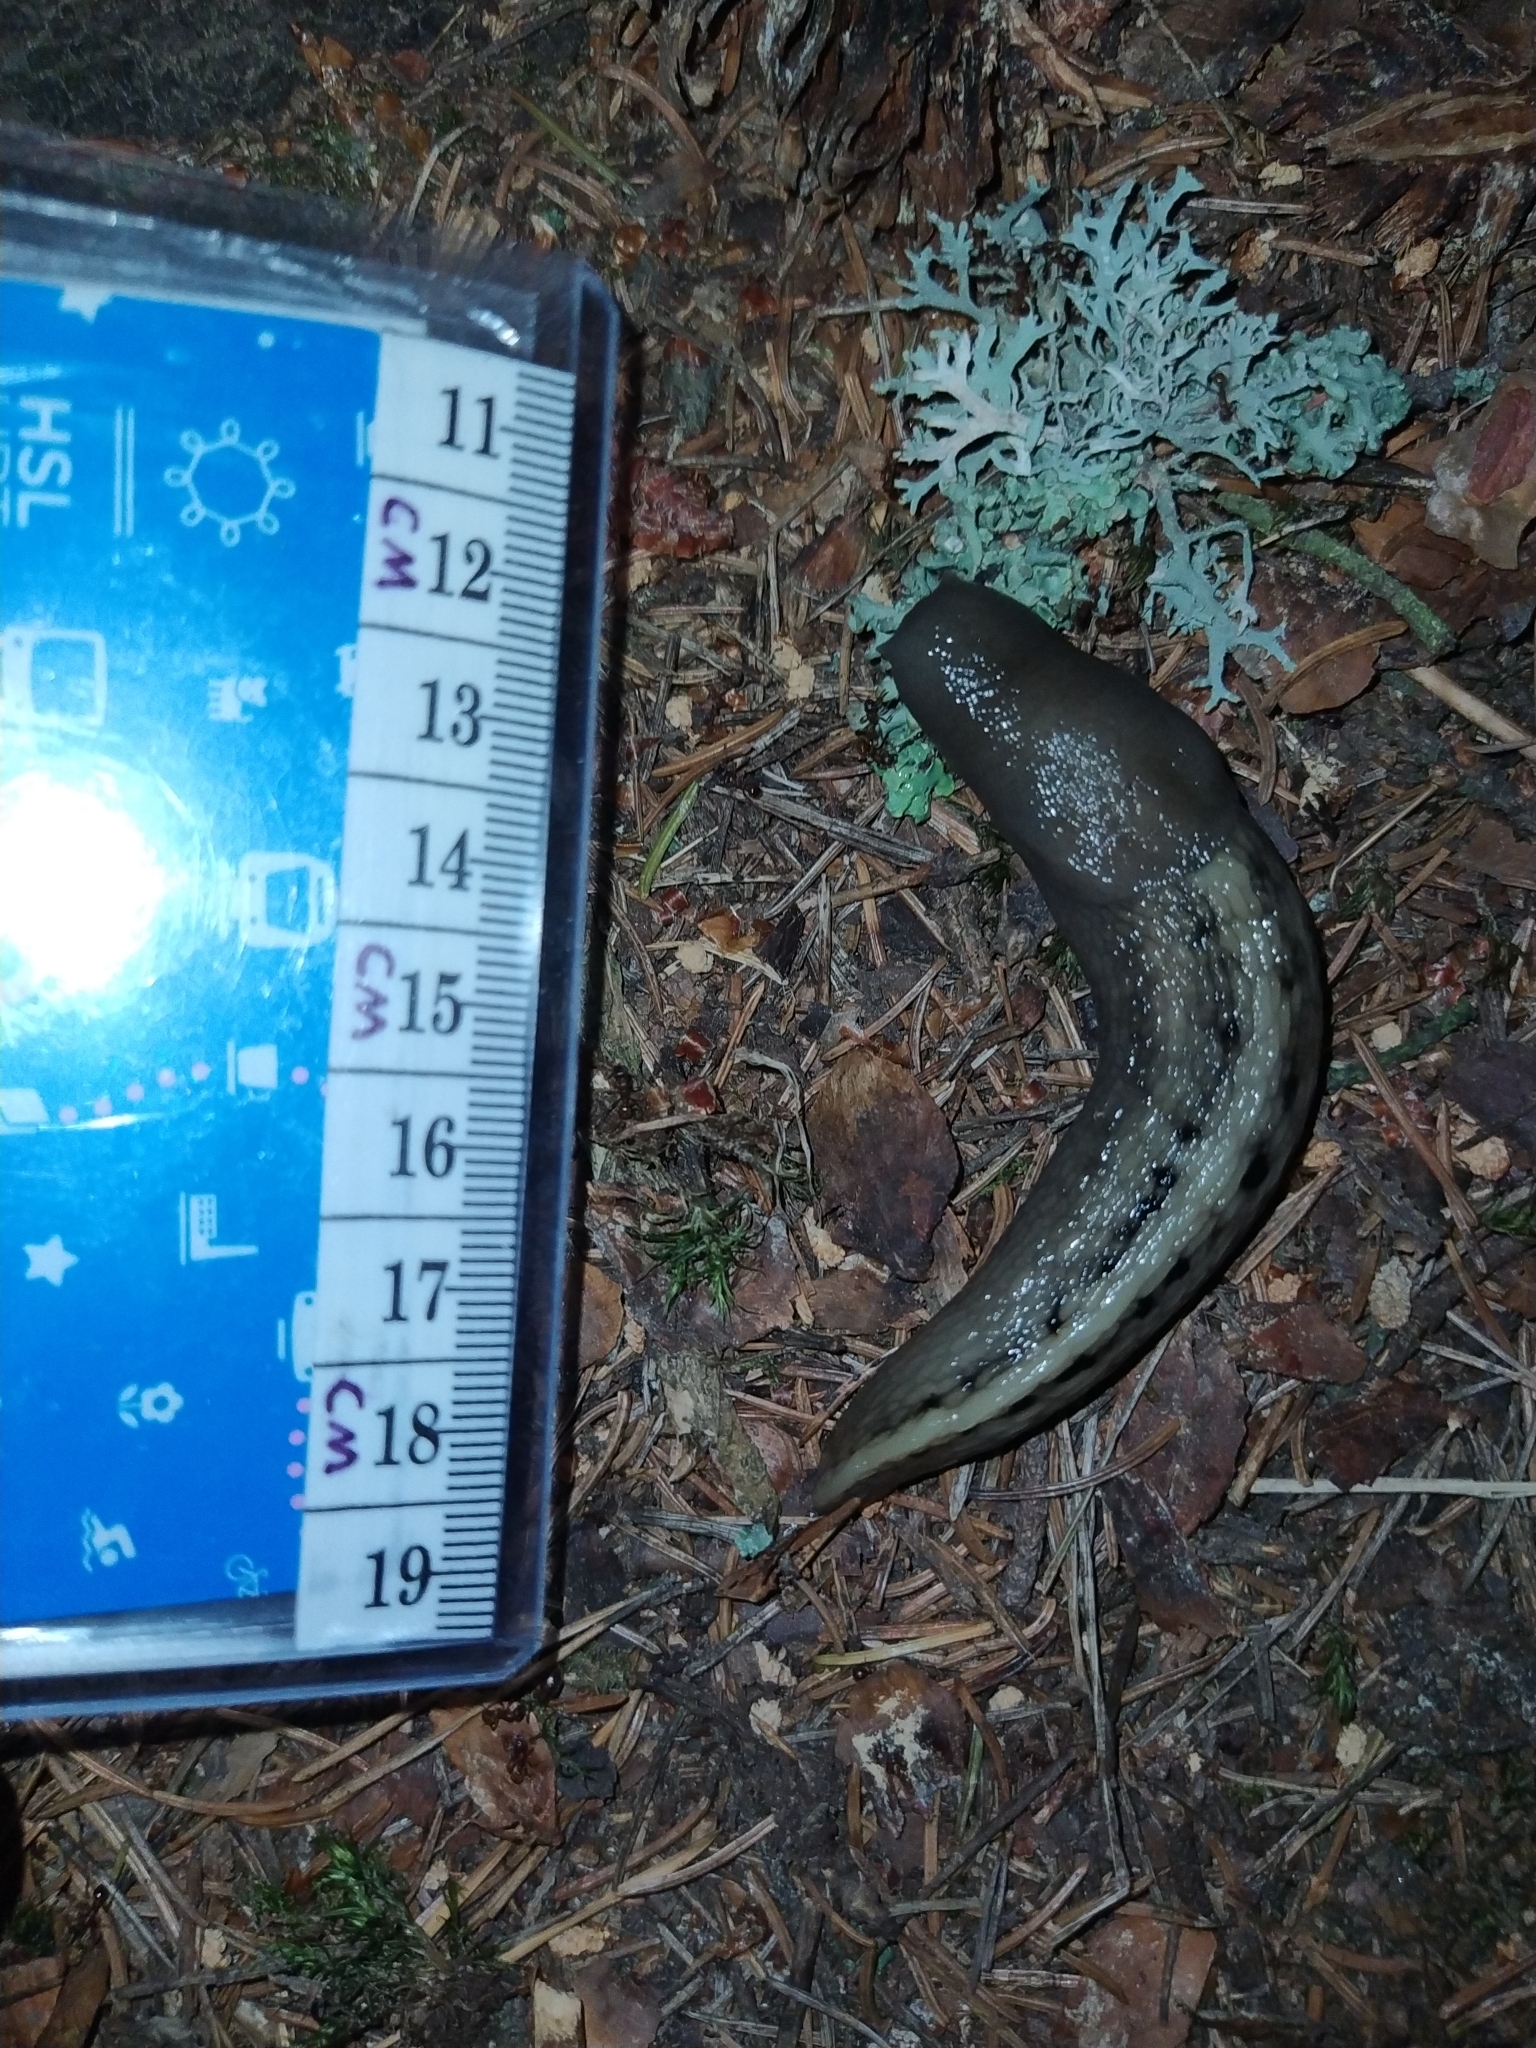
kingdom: Animalia
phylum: Mollusca
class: Gastropoda
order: Stylommatophora
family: Limacidae
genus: Limax
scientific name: Limax cinereoniger
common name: Ash-black slug
